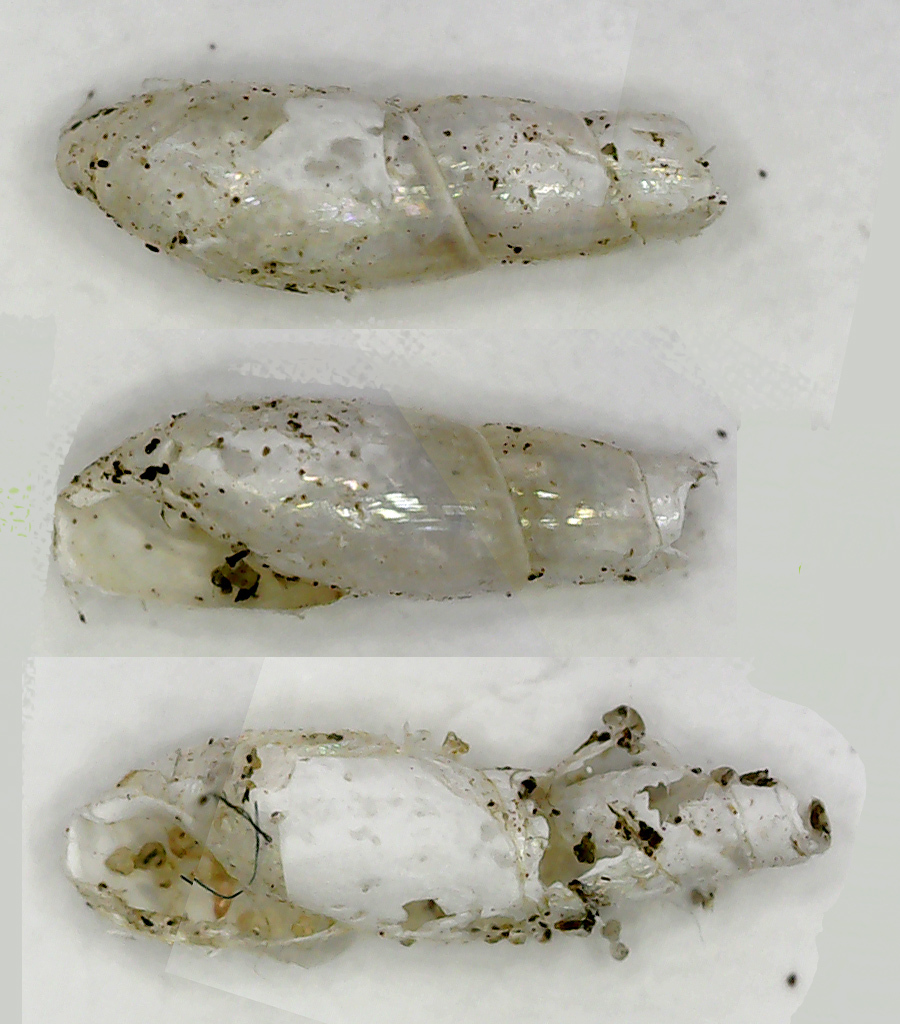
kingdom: Animalia
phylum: Mollusca
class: Gastropoda
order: Stylommatophora
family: Ferussaciidae
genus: Cecilioides
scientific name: Cecilioides acicula
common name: Blind awlsnail
